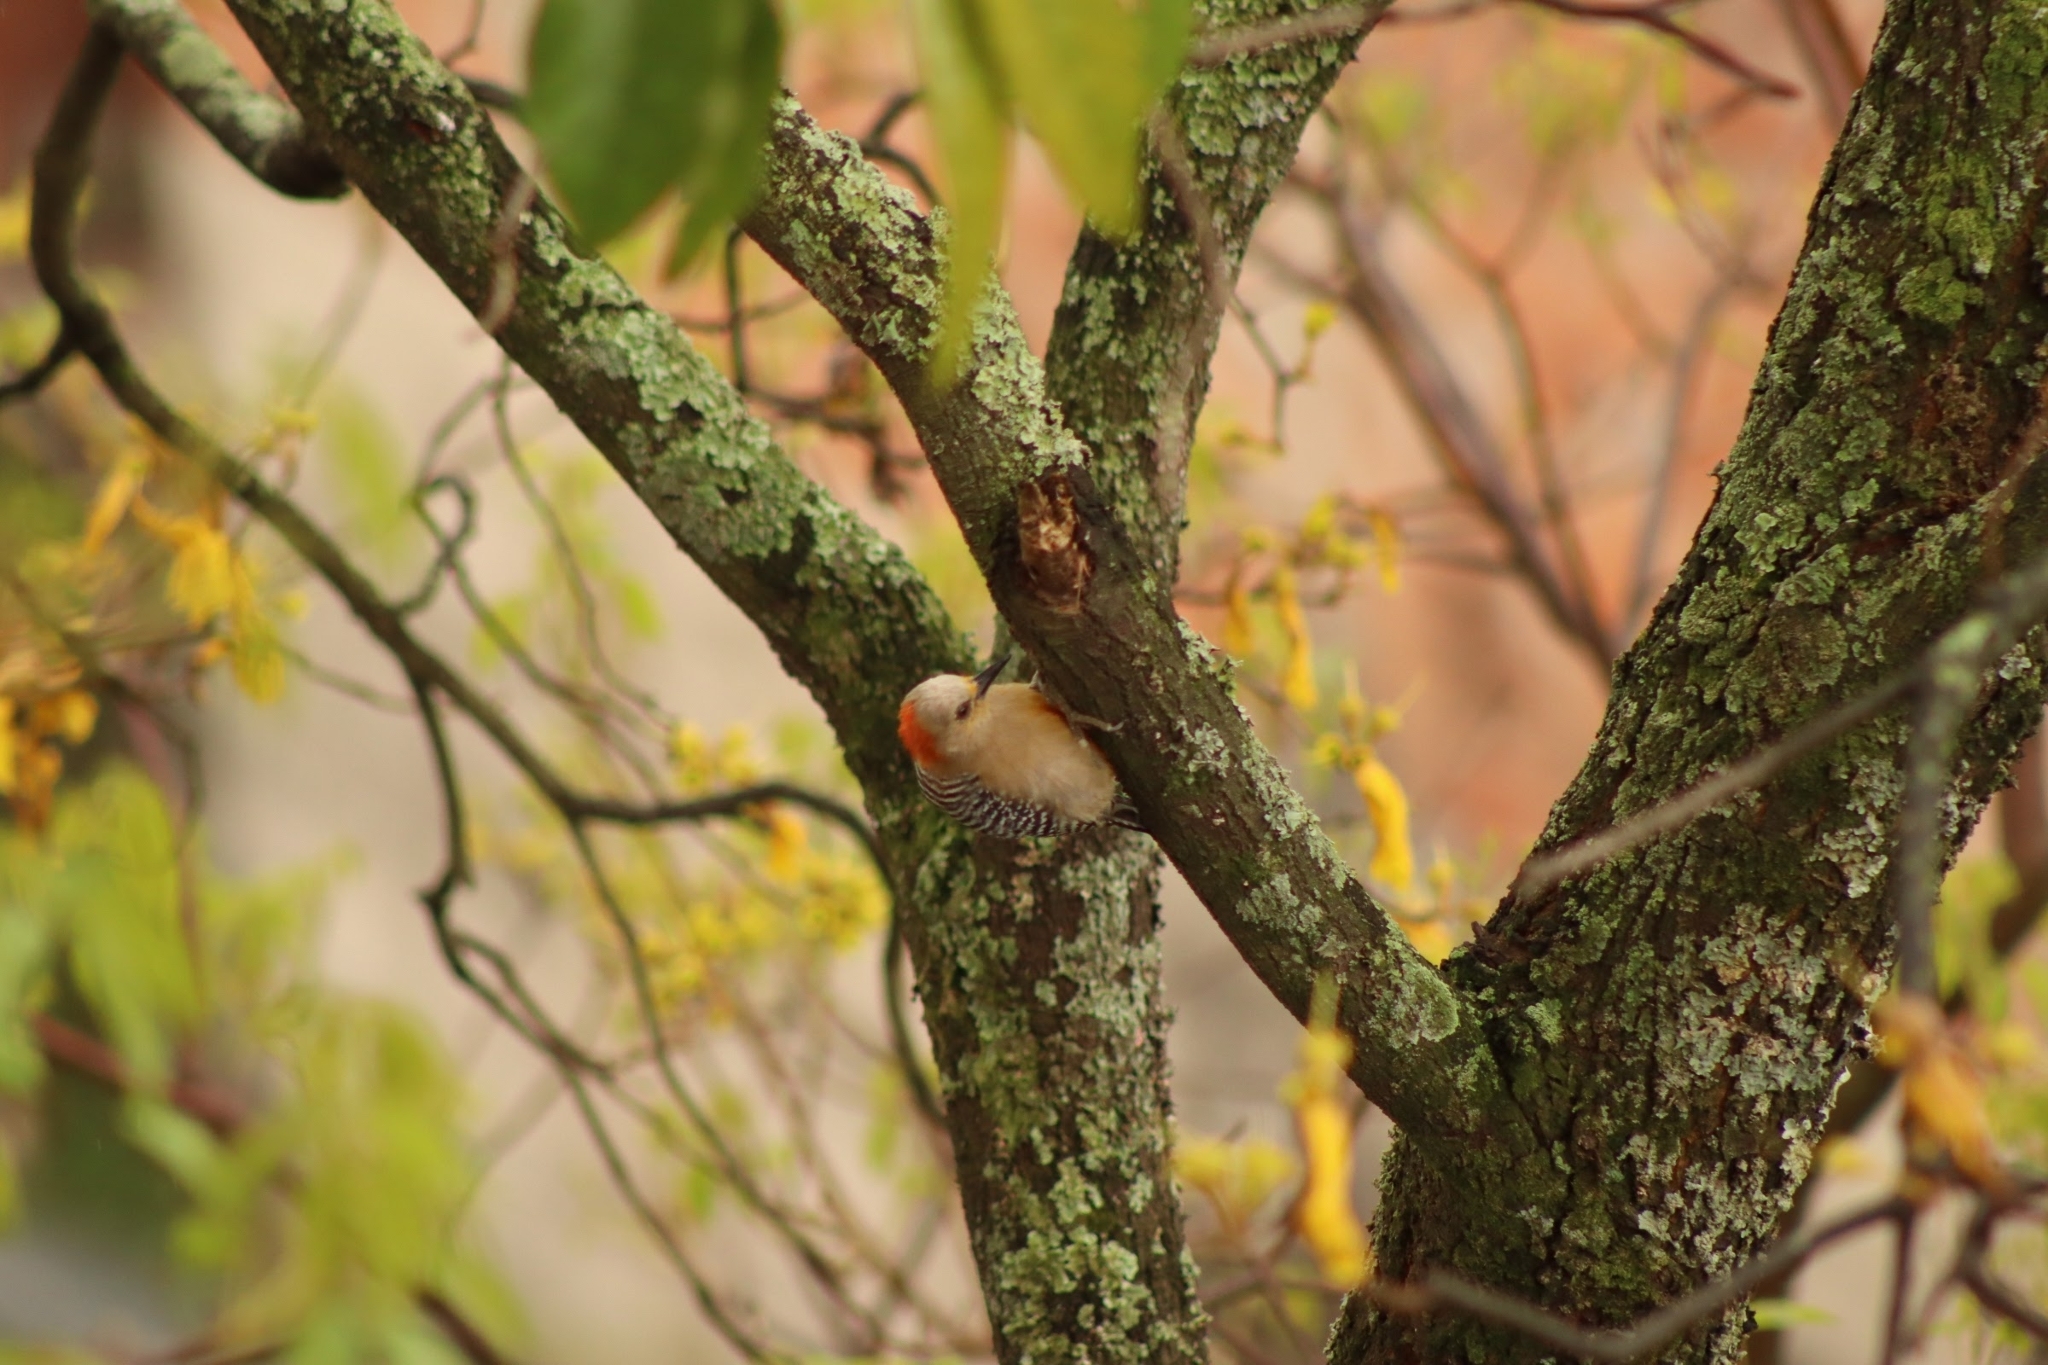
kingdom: Animalia
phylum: Chordata
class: Aves
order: Piciformes
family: Picidae
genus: Melanerpes
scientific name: Melanerpes rubricapillus
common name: Red-crowned woodpecker
